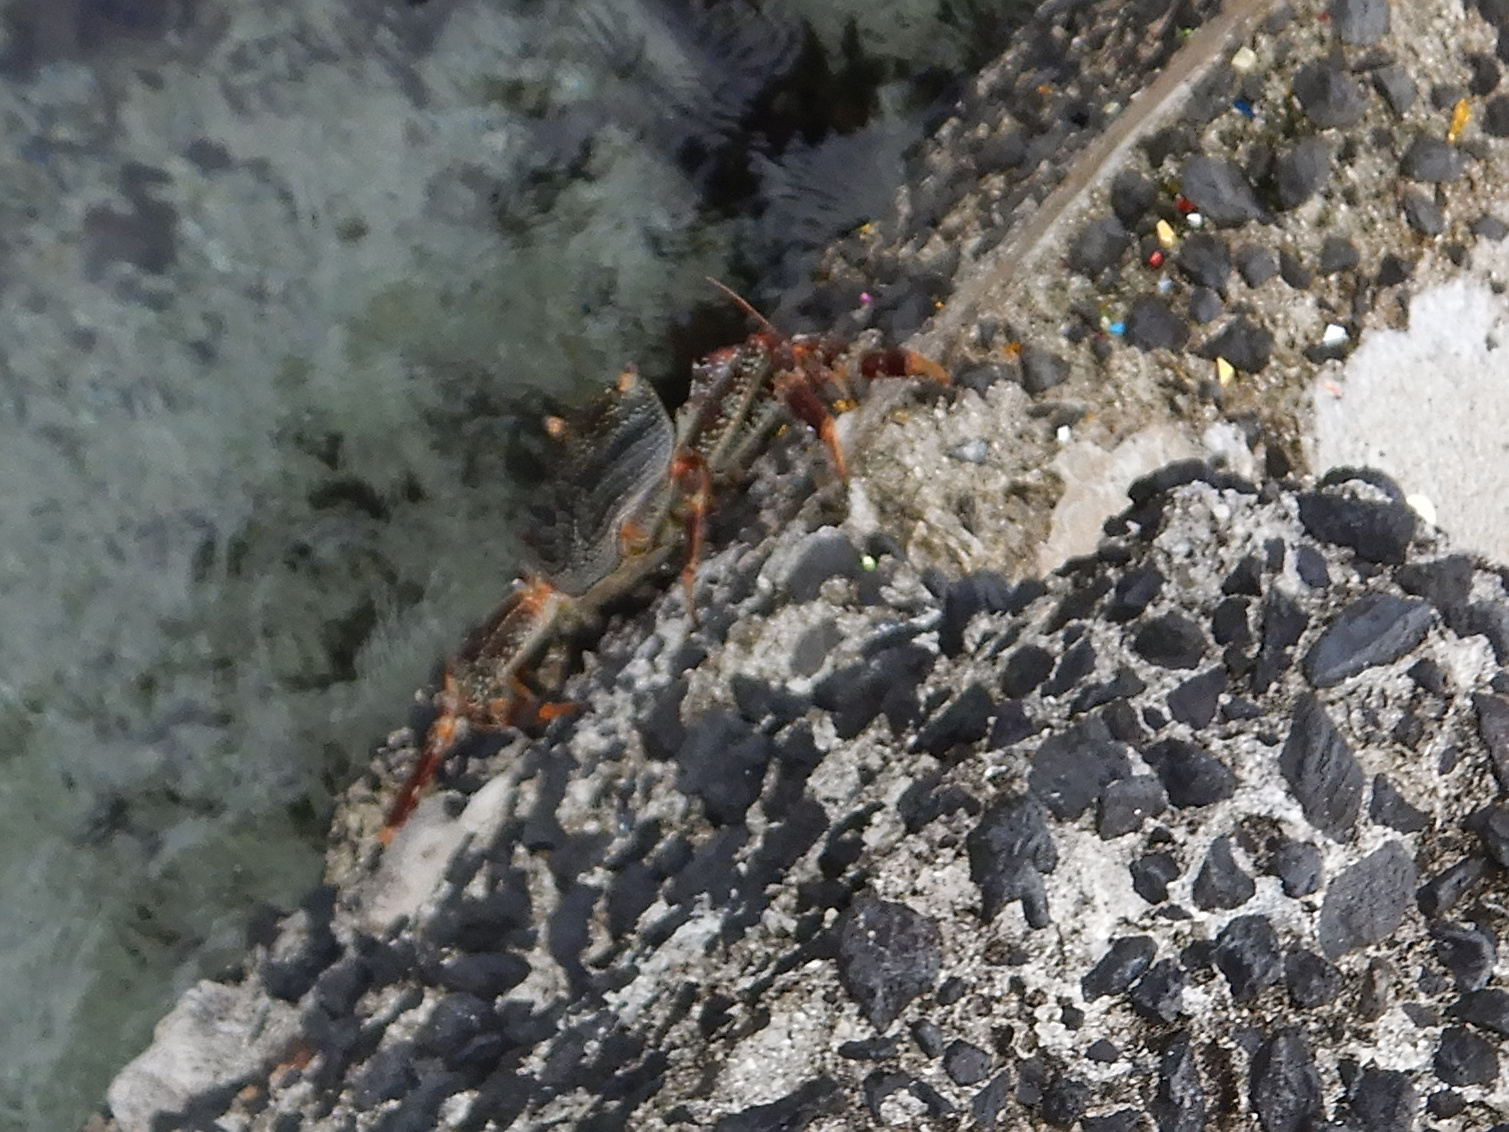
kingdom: Animalia
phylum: Arthropoda
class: Malacostraca
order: Decapoda
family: Grapsidae
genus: Grapsus
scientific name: Grapsus tenuicrustatus
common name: Natal lightfoot crab
